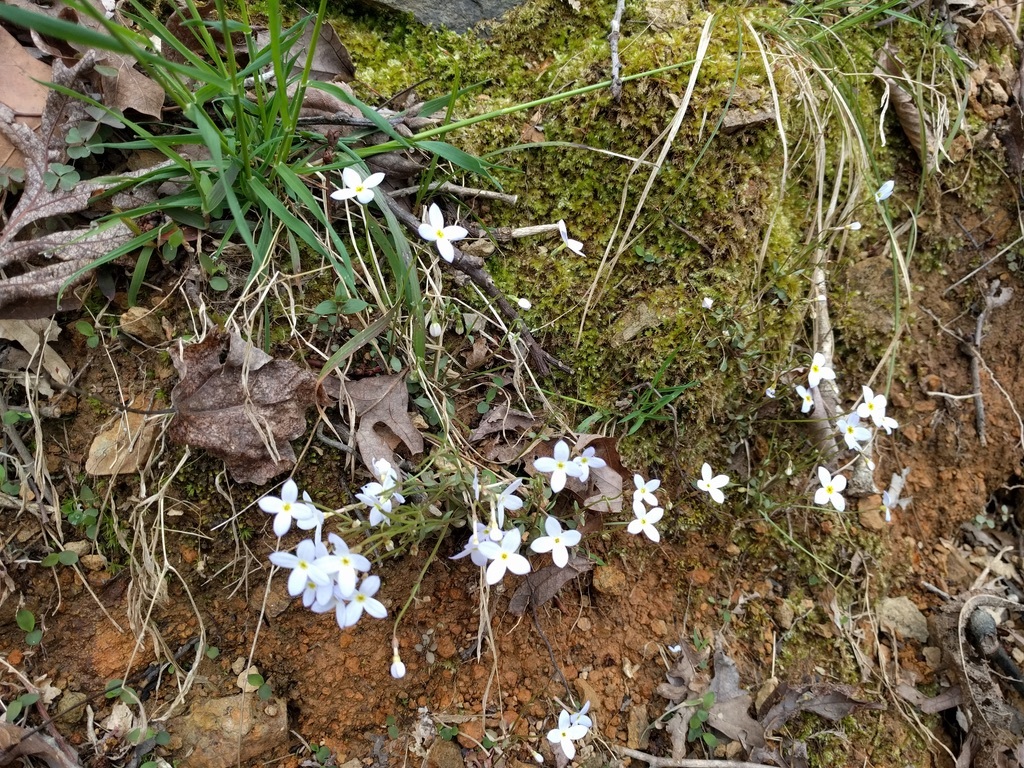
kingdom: Plantae
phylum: Tracheophyta
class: Magnoliopsida
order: Gentianales
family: Rubiaceae
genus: Houstonia
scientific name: Houstonia caerulea
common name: Bluets
